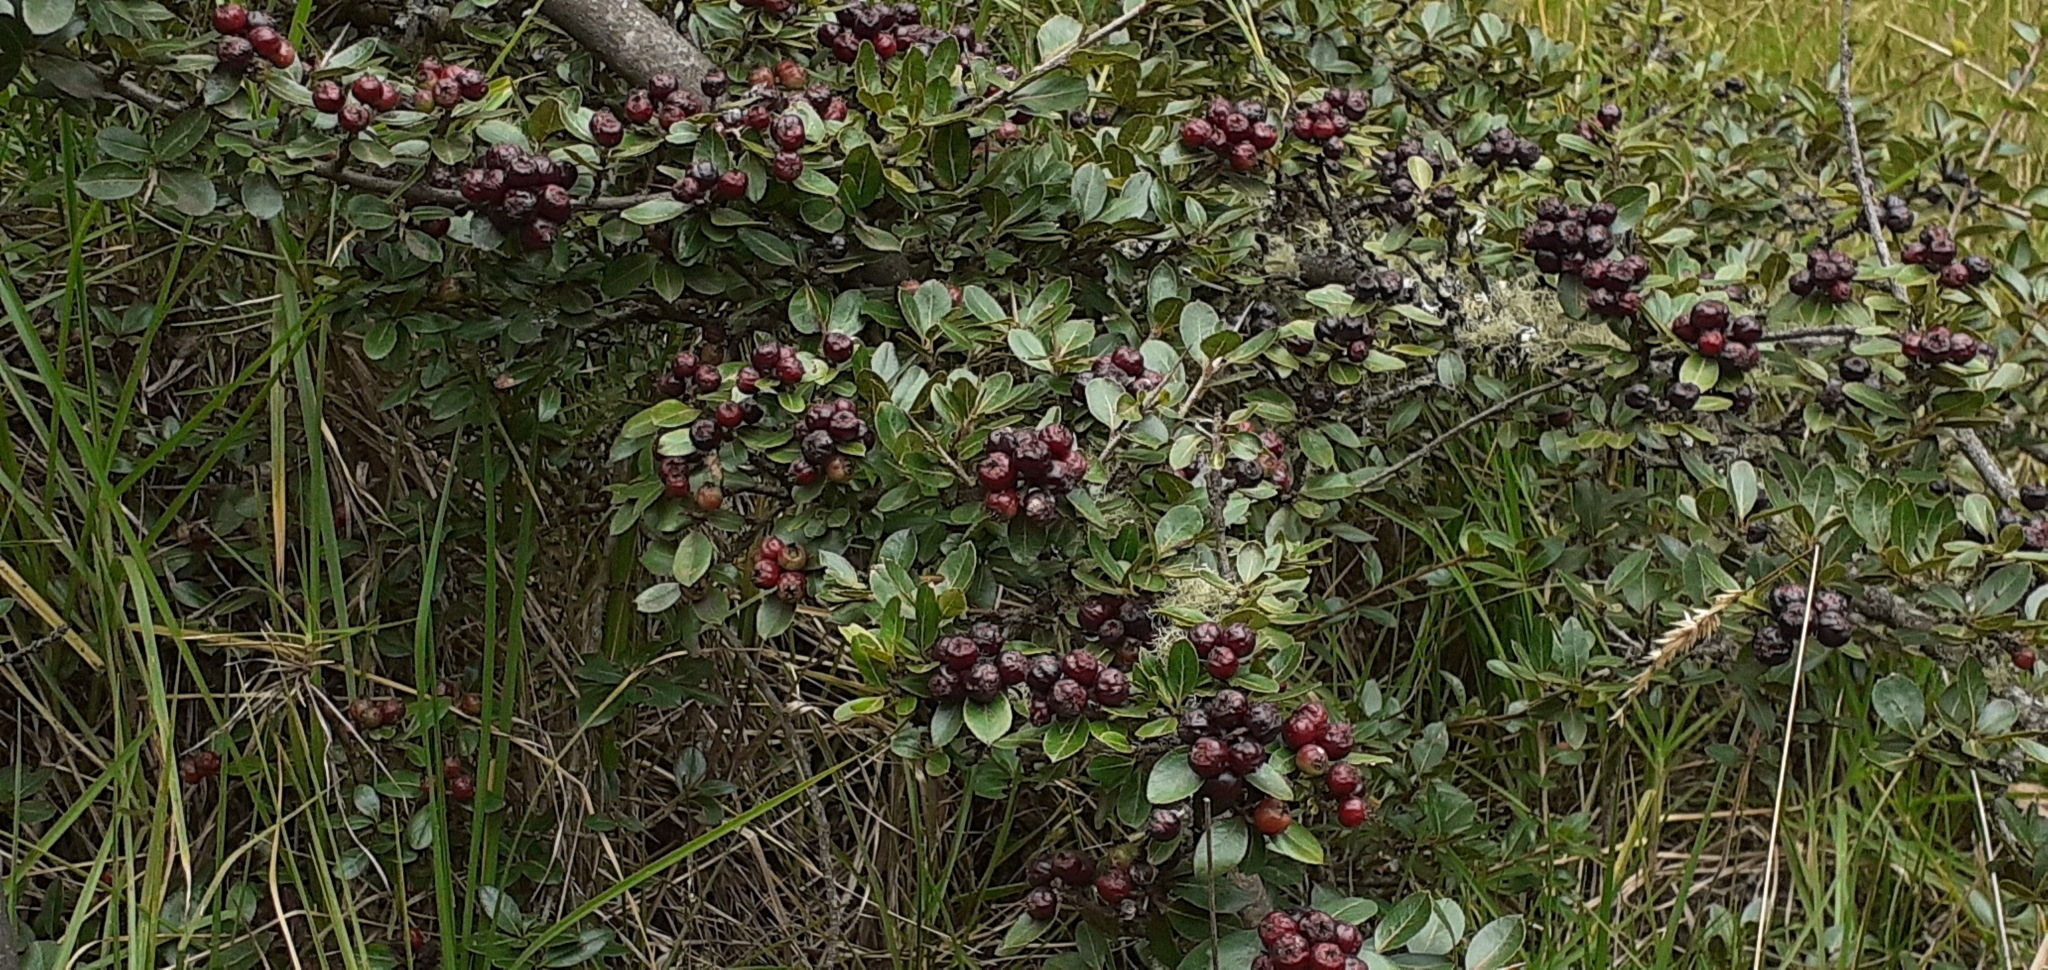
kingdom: Plantae
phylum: Tracheophyta
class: Magnoliopsida
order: Rosales
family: Rosaceae
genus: Hesperomeles
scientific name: Hesperomeles obtusifolia
